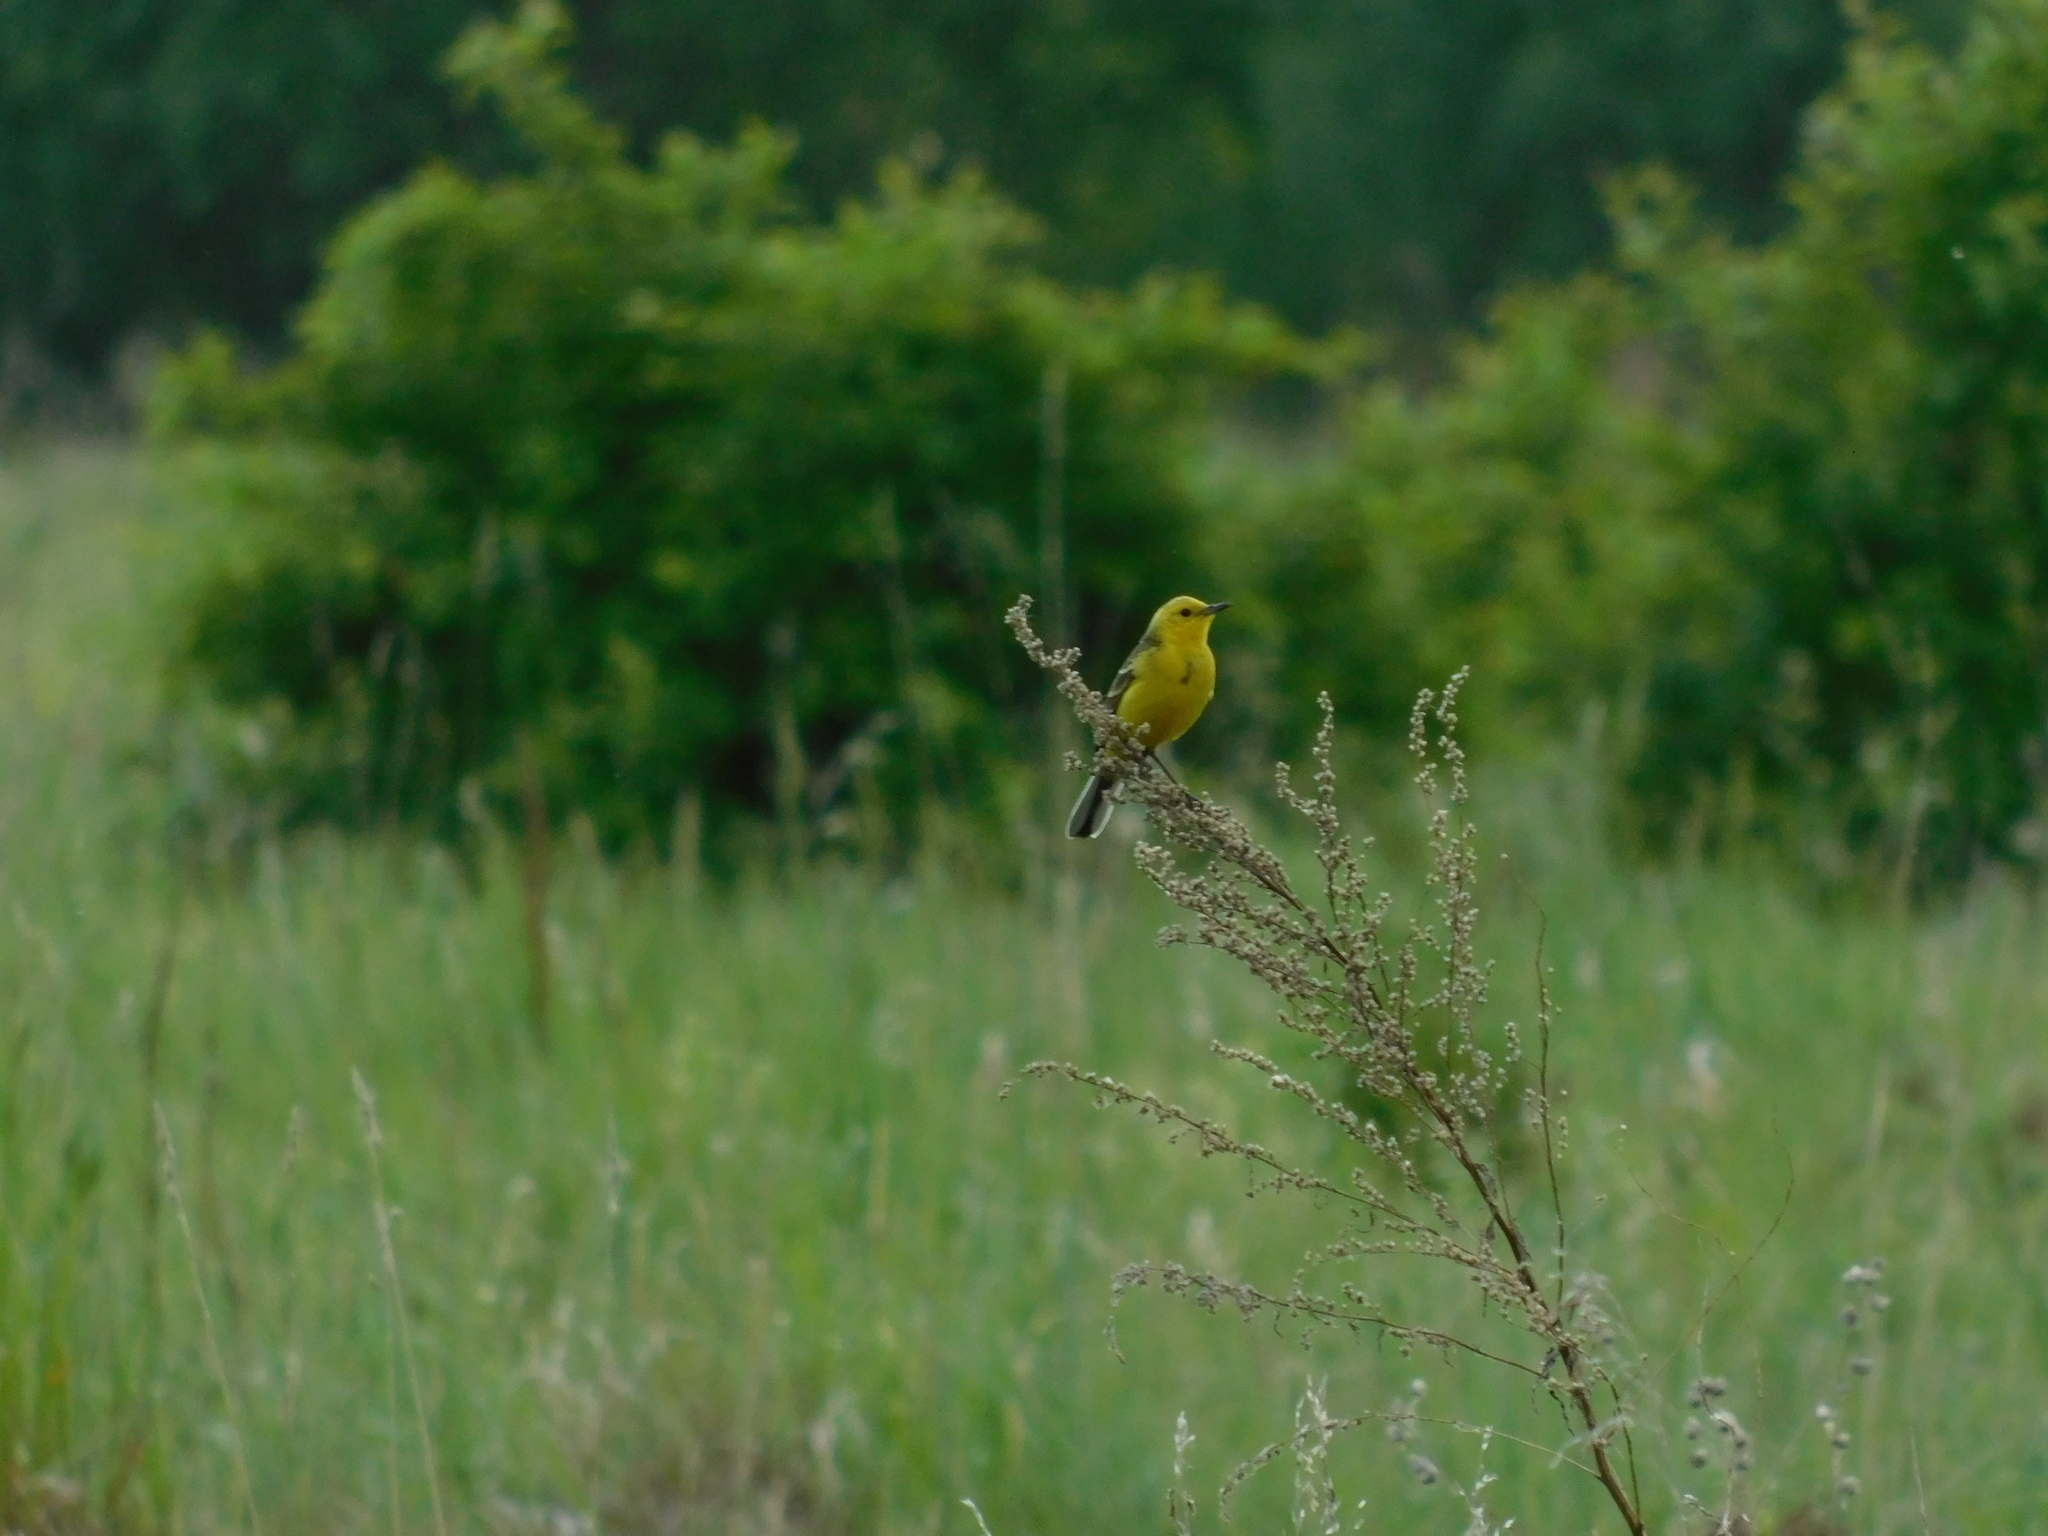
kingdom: Animalia
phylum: Chordata
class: Aves
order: Passeriformes
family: Motacillidae
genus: Motacilla
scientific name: Motacilla flava
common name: Western yellow wagtail
